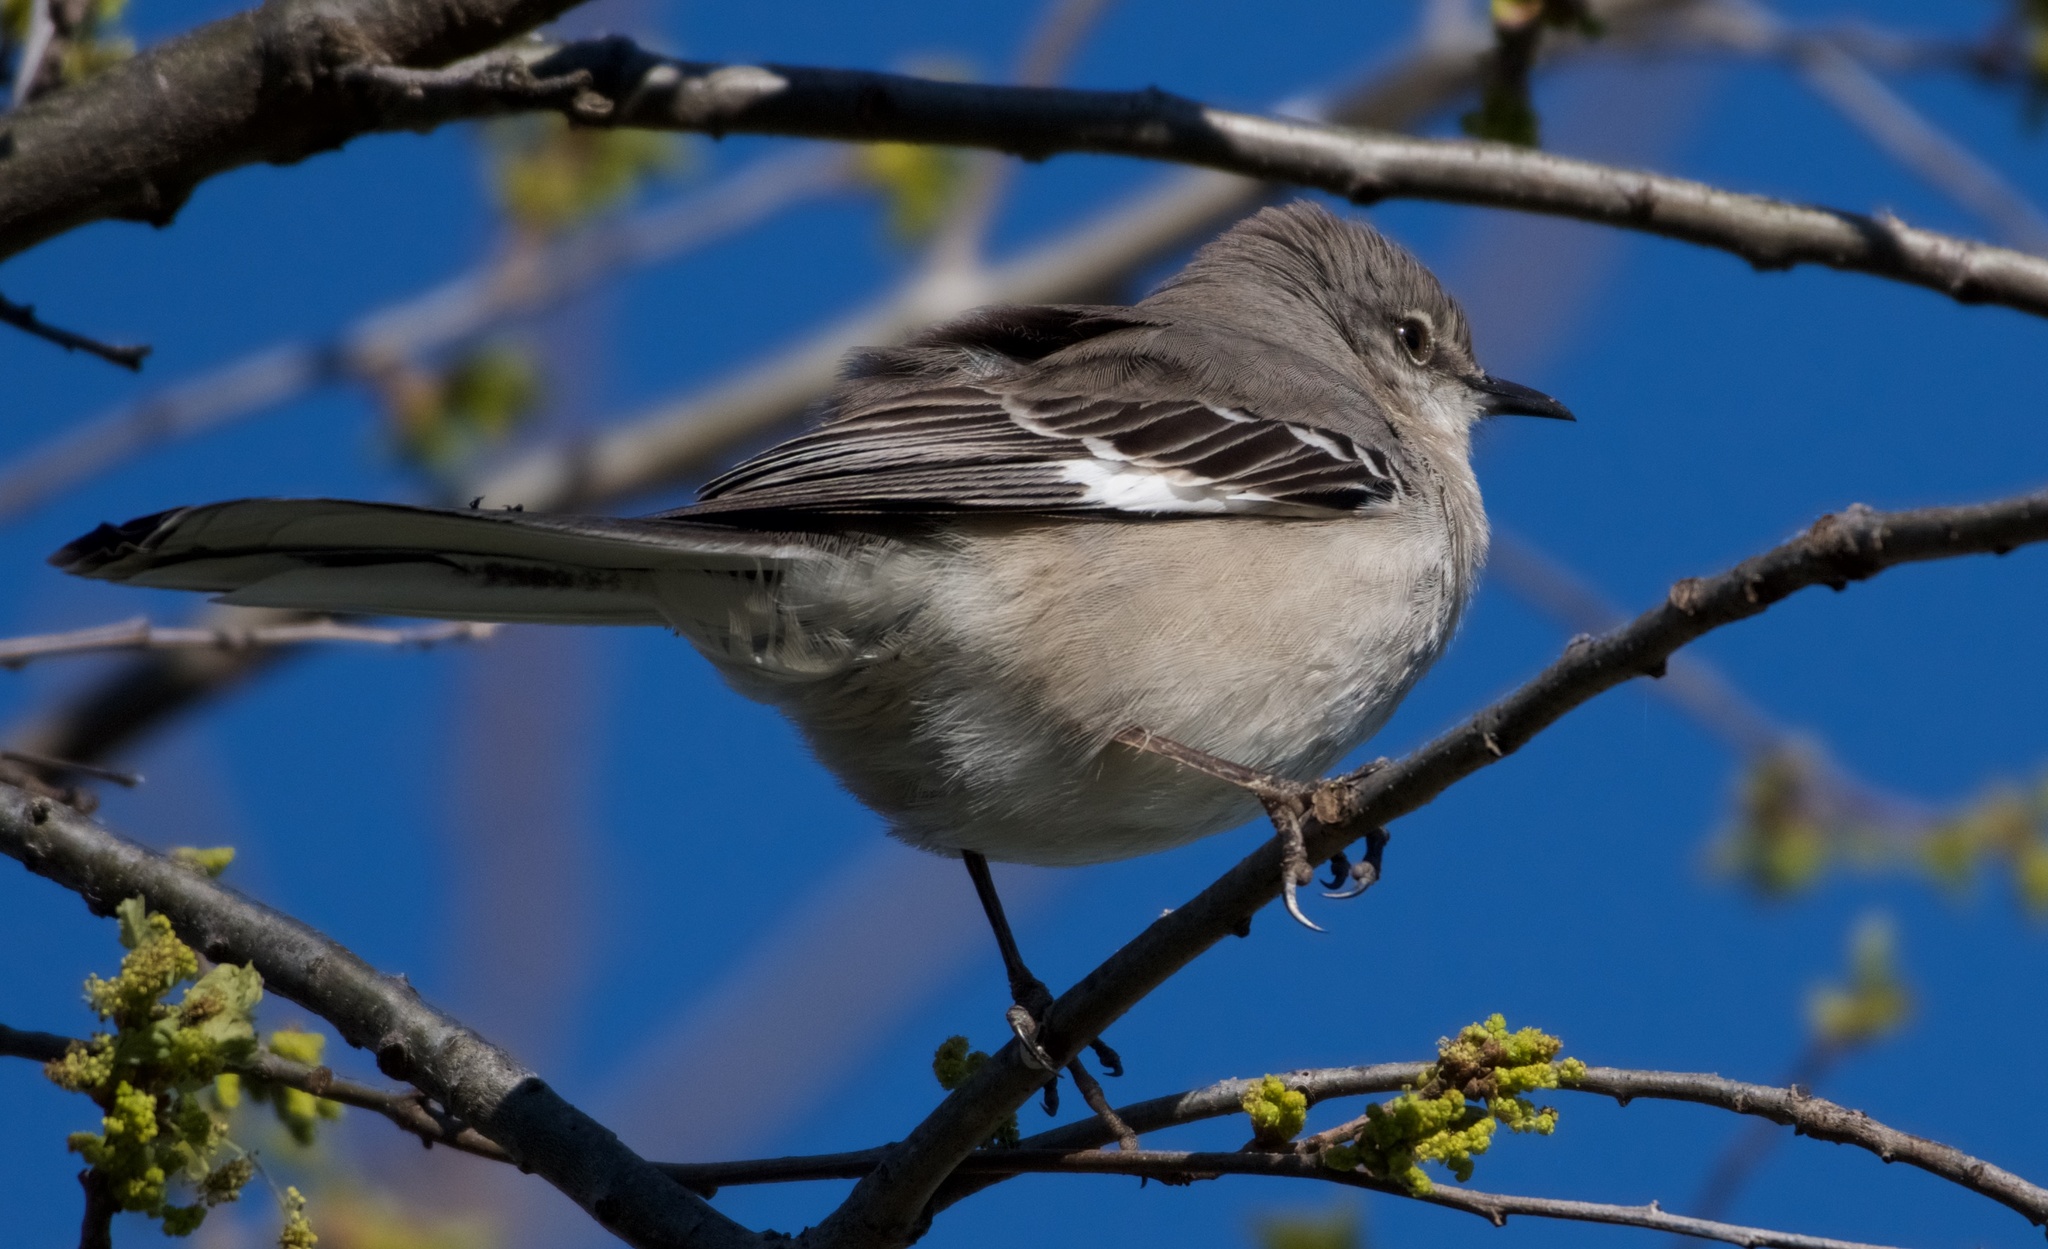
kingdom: Animalia
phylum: Chordata
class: Aves
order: Passeriformes
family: Mimidae
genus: Mimus
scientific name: Mimus polyglottos
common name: Northern mockingbird
